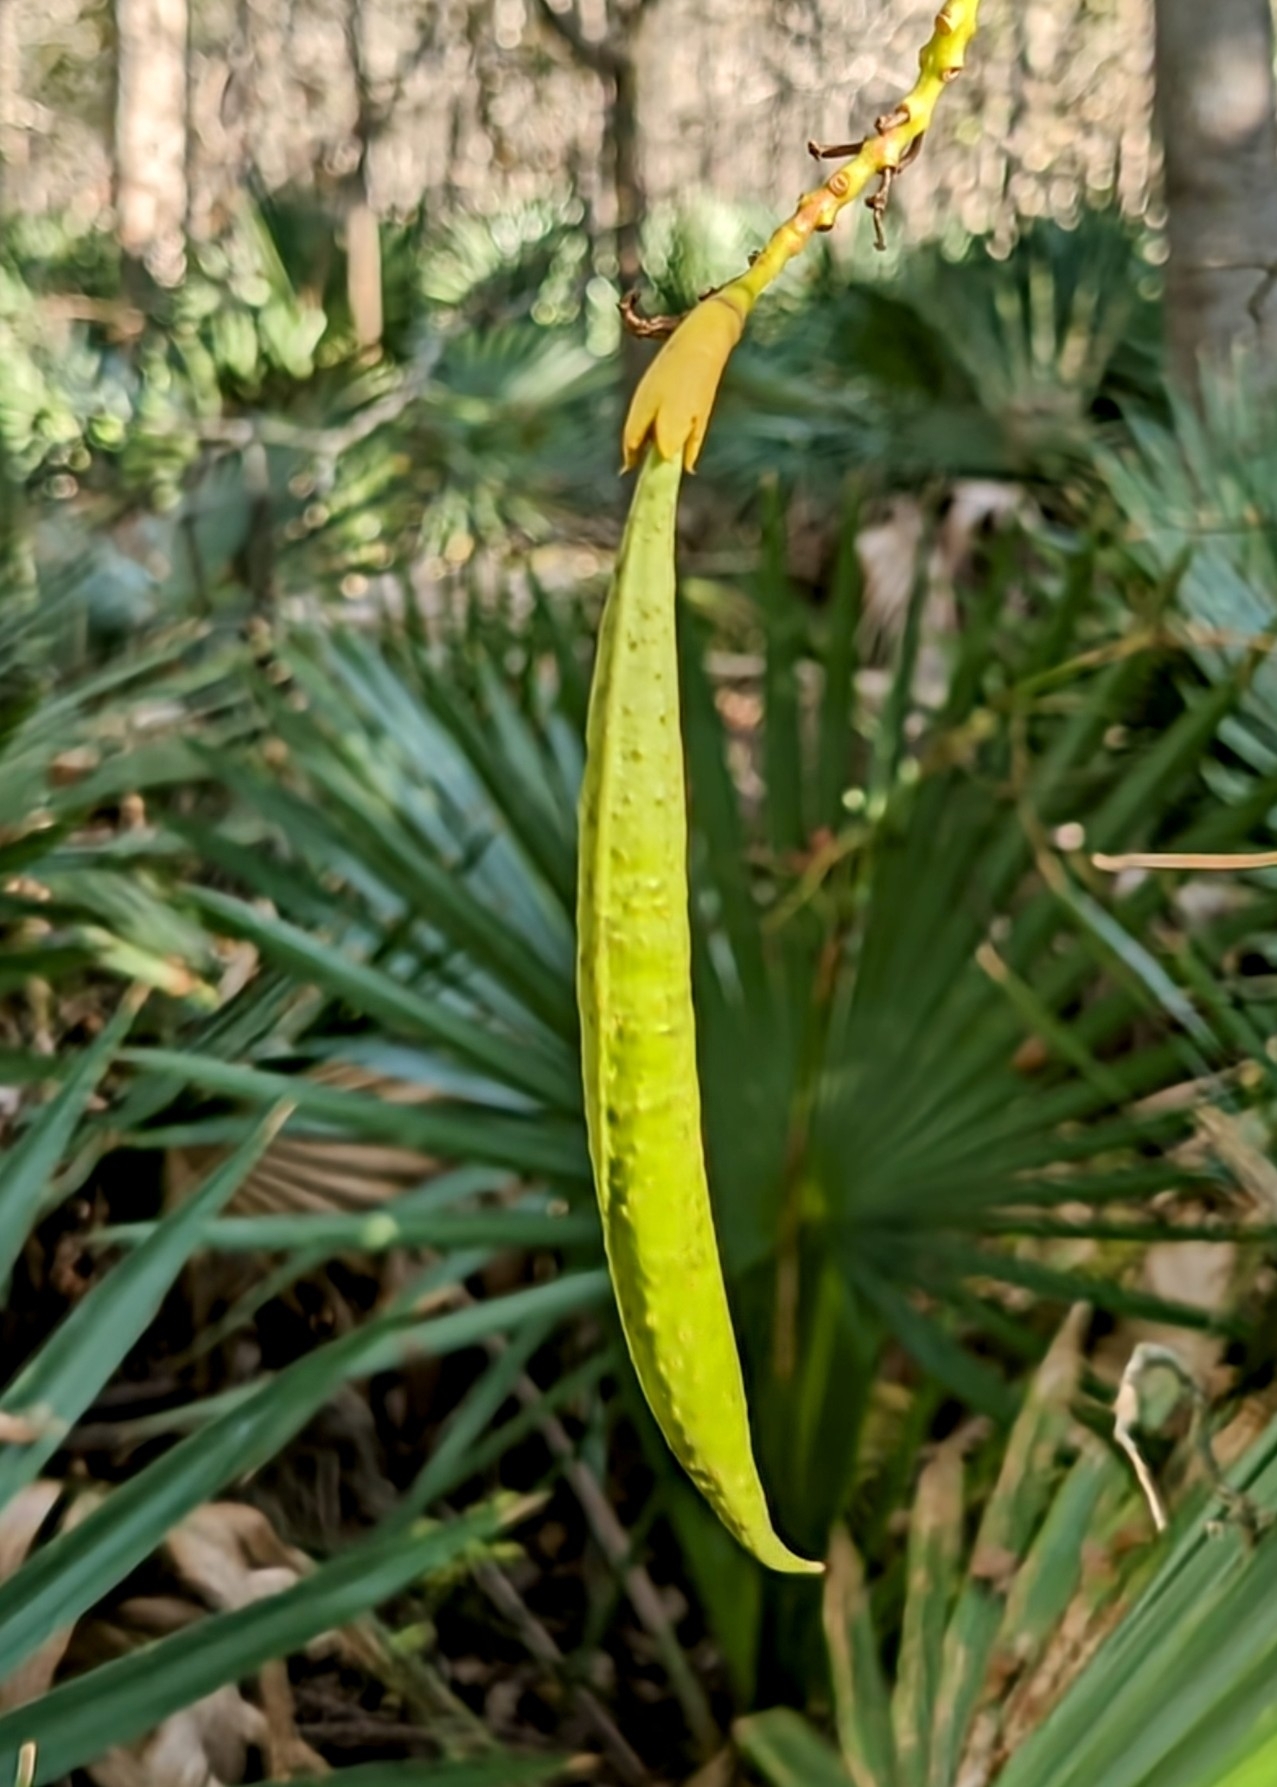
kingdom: Plantae
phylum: Tracheophyta
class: Magnoliopsida
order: Lamiales
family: Bignoniaceae
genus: Campsis
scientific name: Campsis radicans
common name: Trumpet-creeper
